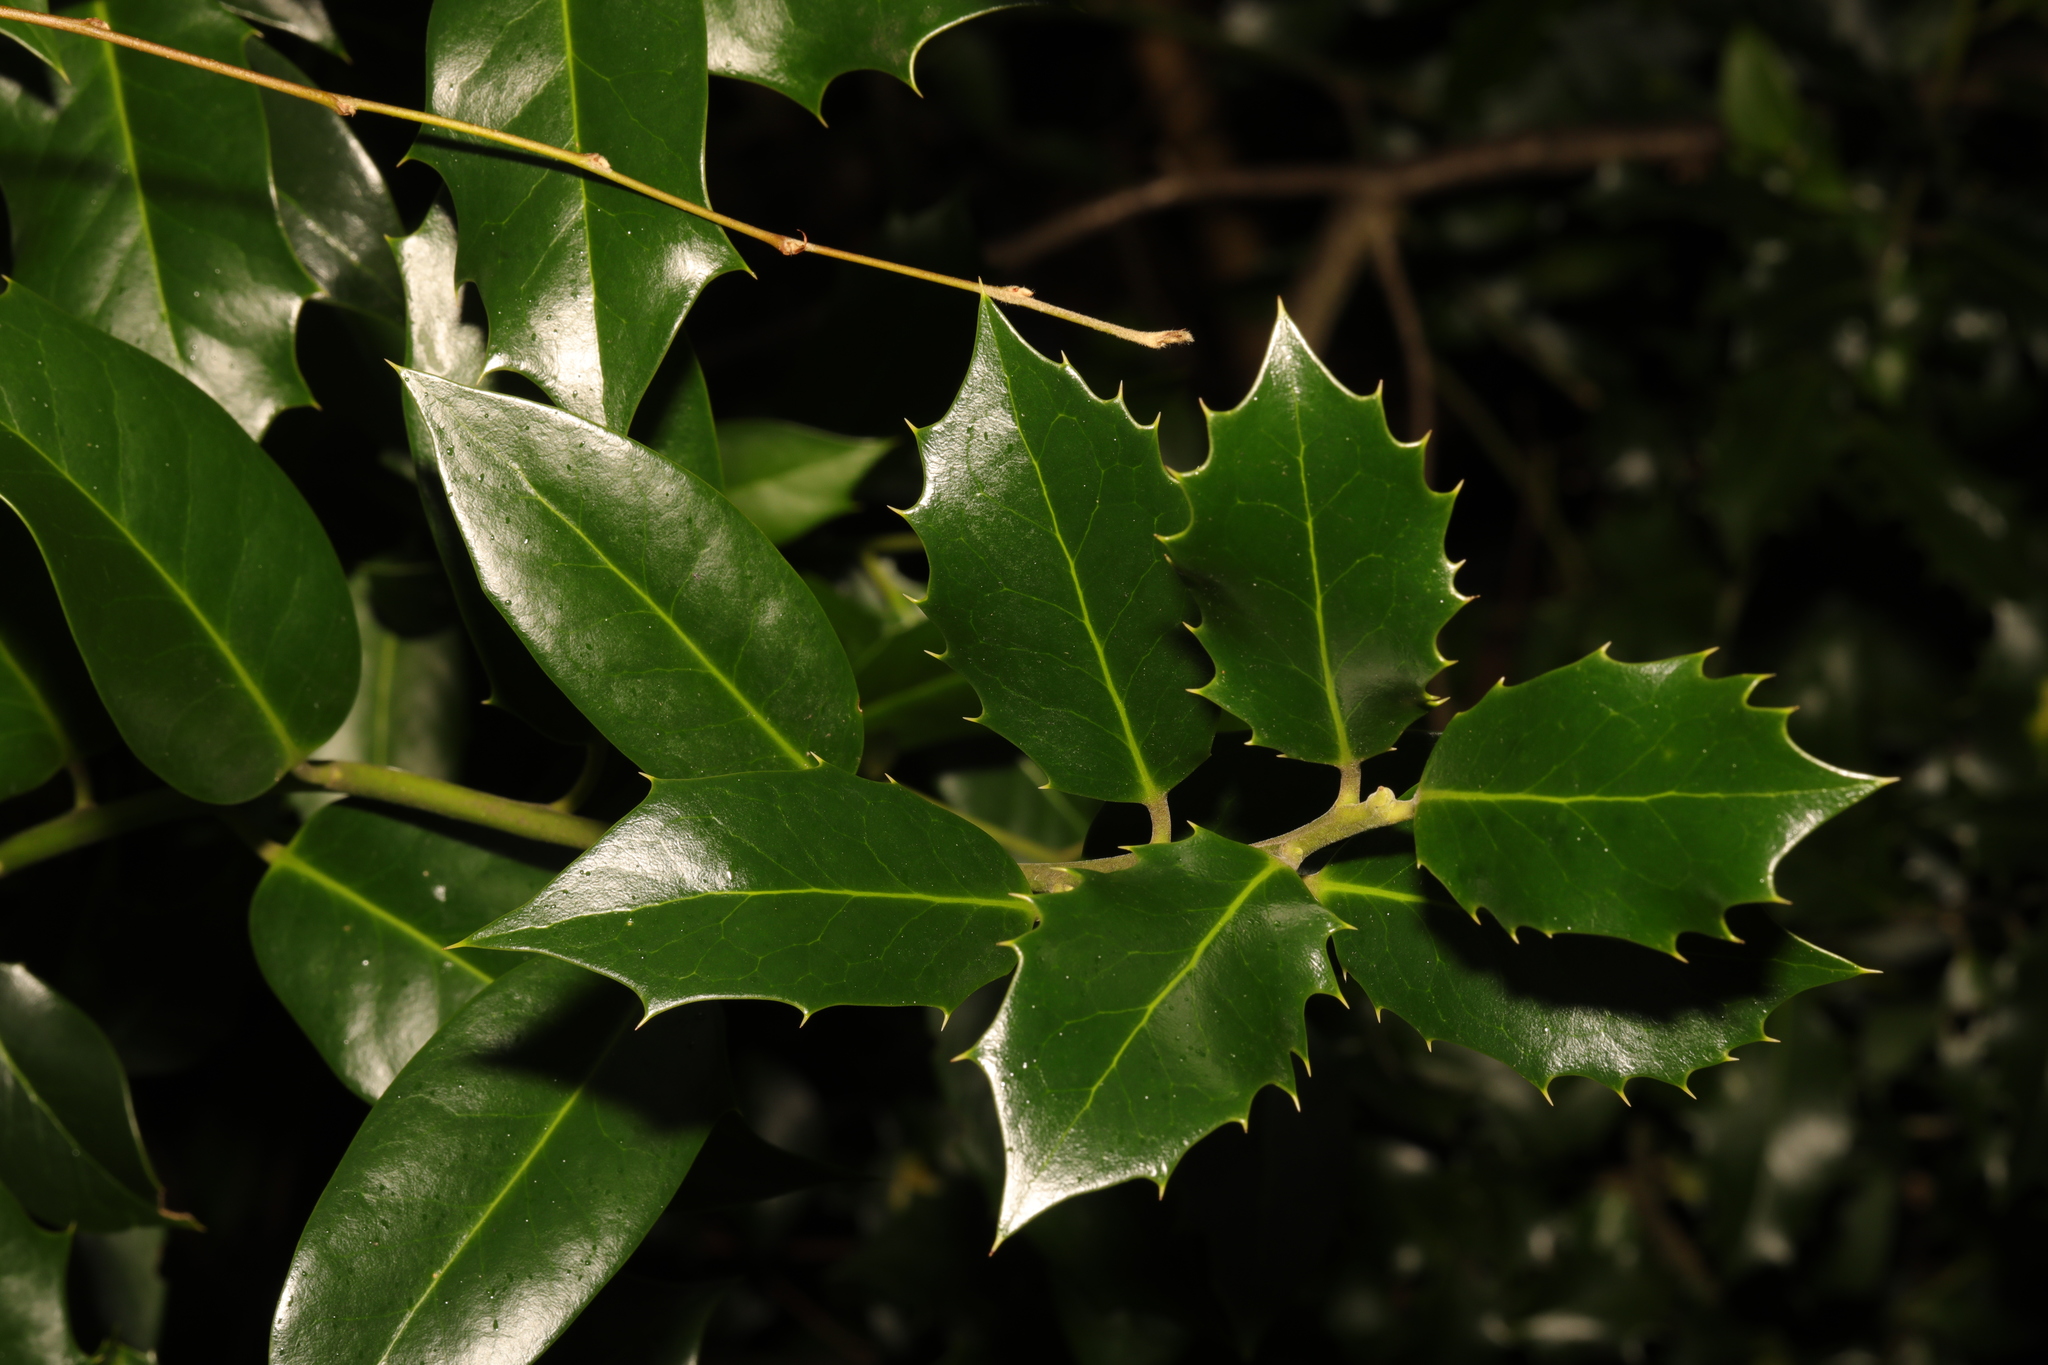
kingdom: Plantae
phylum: Tracheophyta
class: Magnoliopsida
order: Aquifoliales
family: Aquifoliaceae
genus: Ilex
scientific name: Ilex aquifolium
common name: English holly
